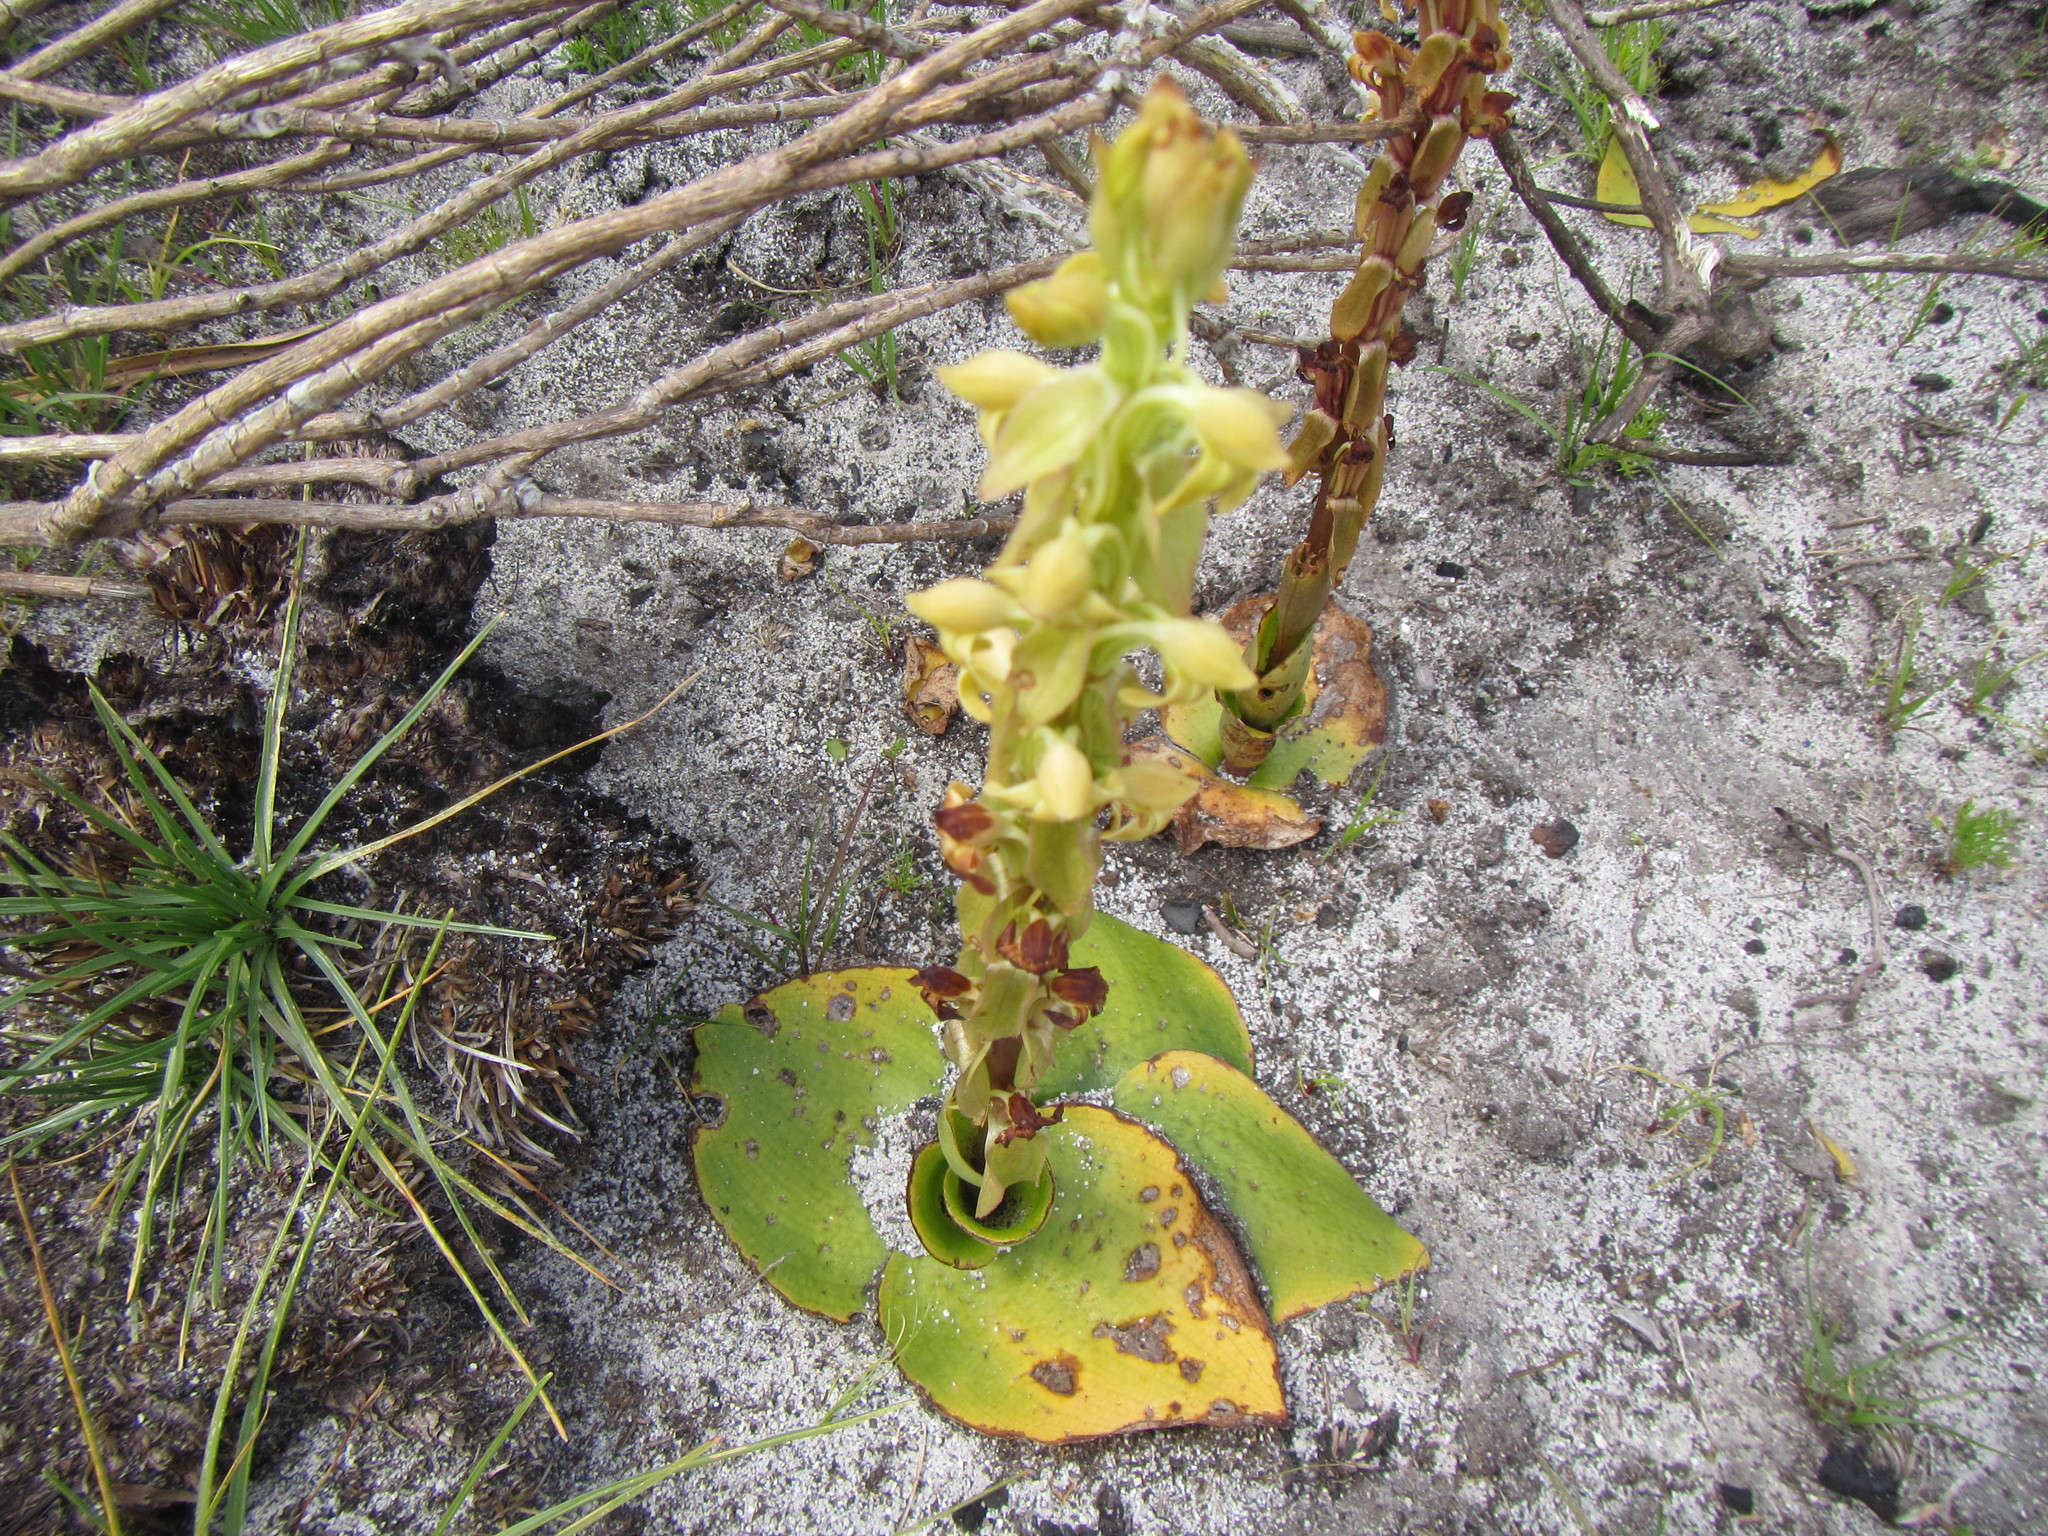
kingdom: Plantae
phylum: Tracheophyta
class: Liliopsida
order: Asparagales
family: Orchidaceae
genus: Satyrium
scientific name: Satyrium bicorne
